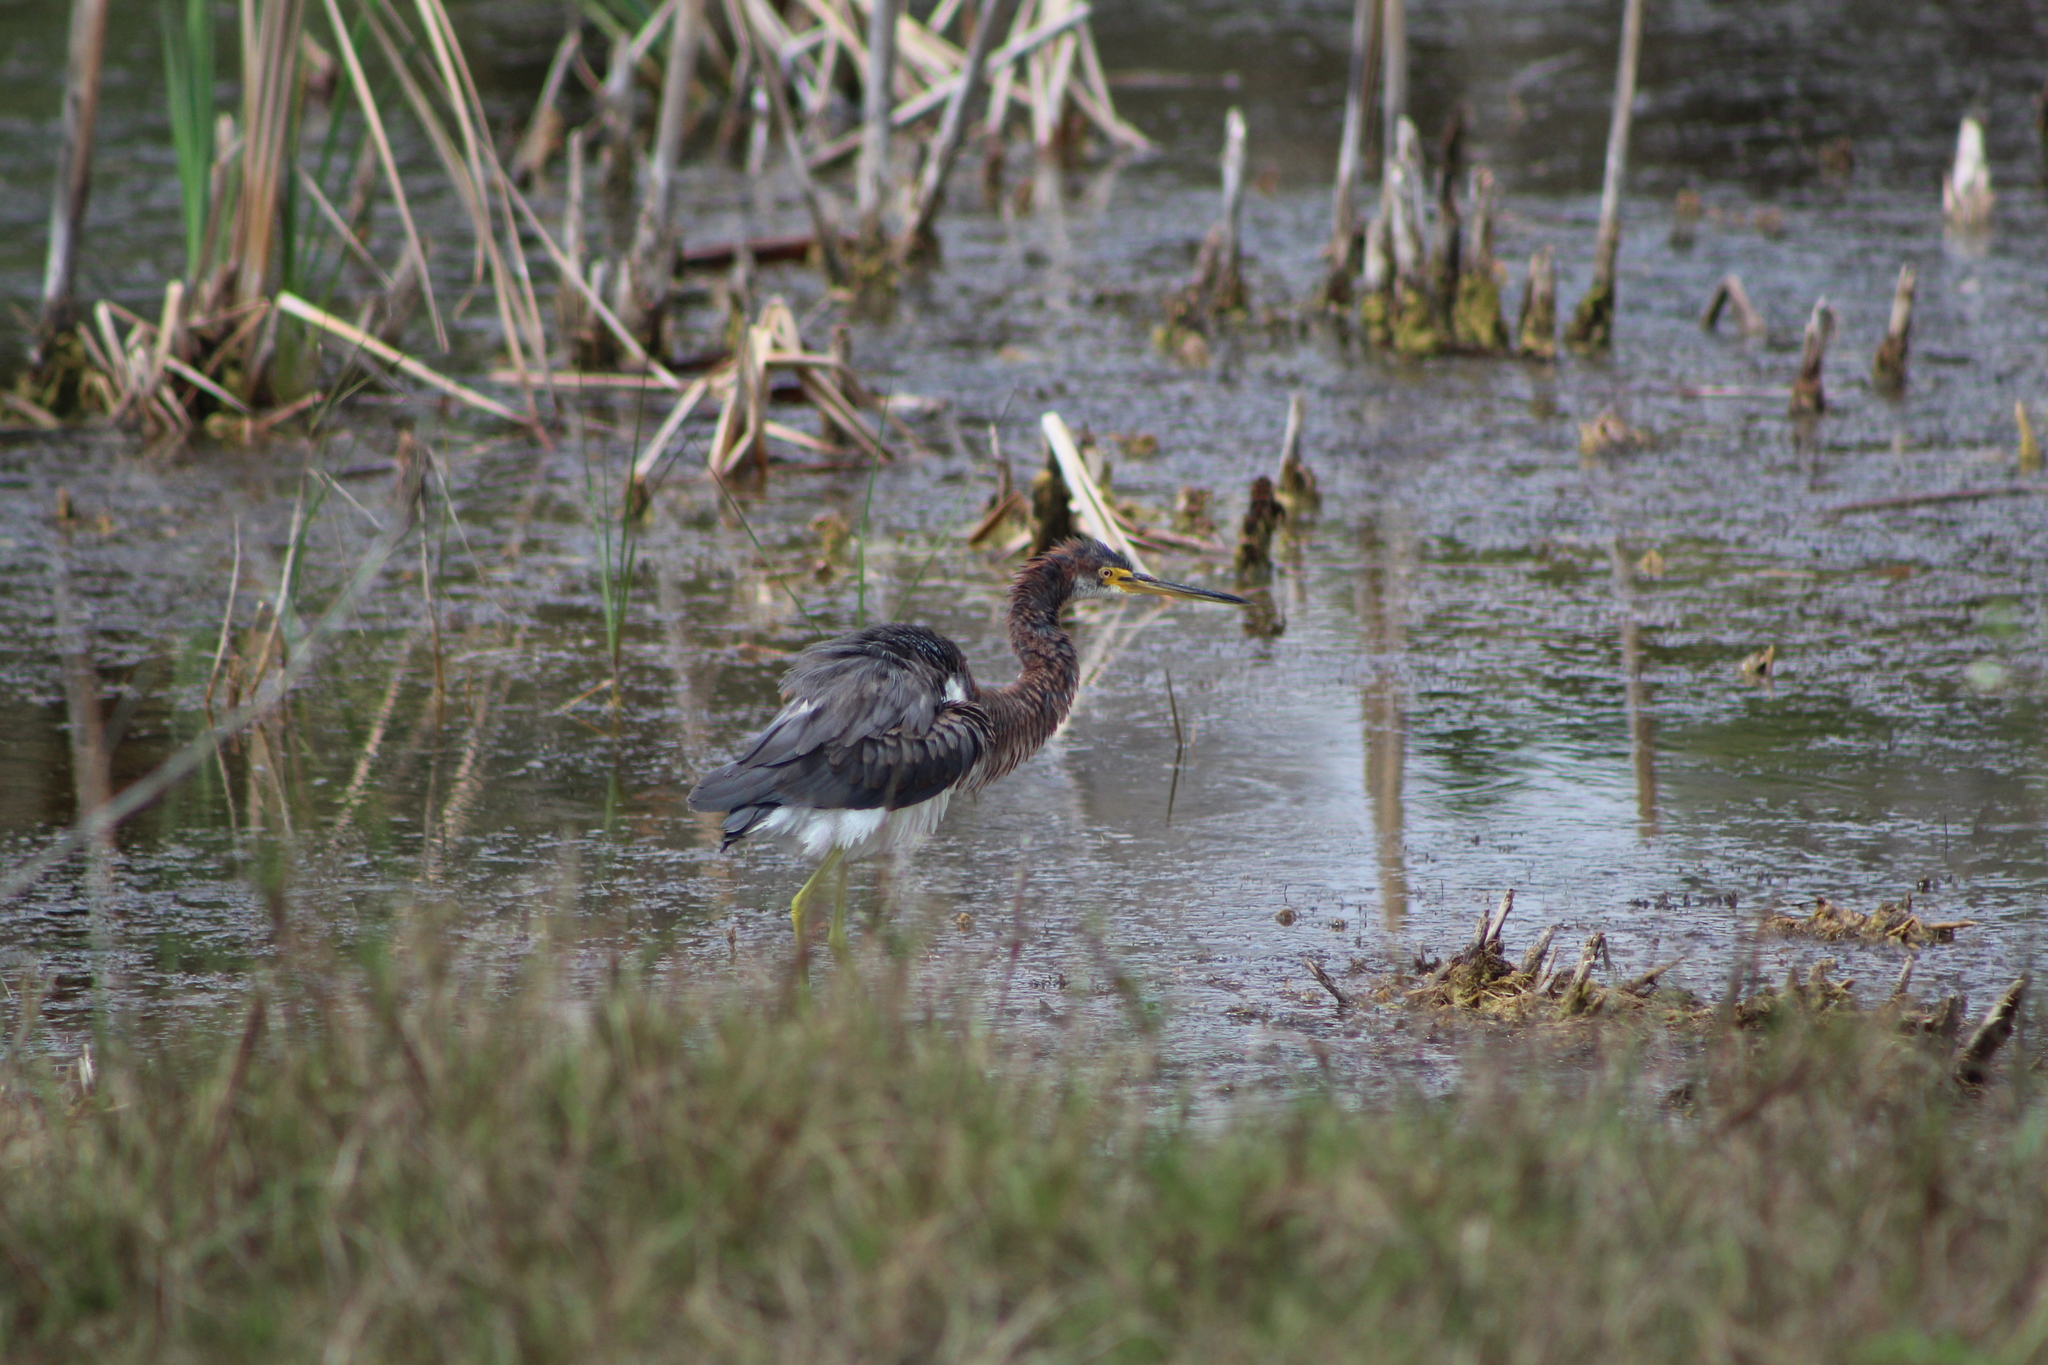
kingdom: Animalia
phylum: Chordata
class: Aves
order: Pelecaniformes
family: Ardeidae
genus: Egretta
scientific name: Egretta tricolor
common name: Tricolored heron
